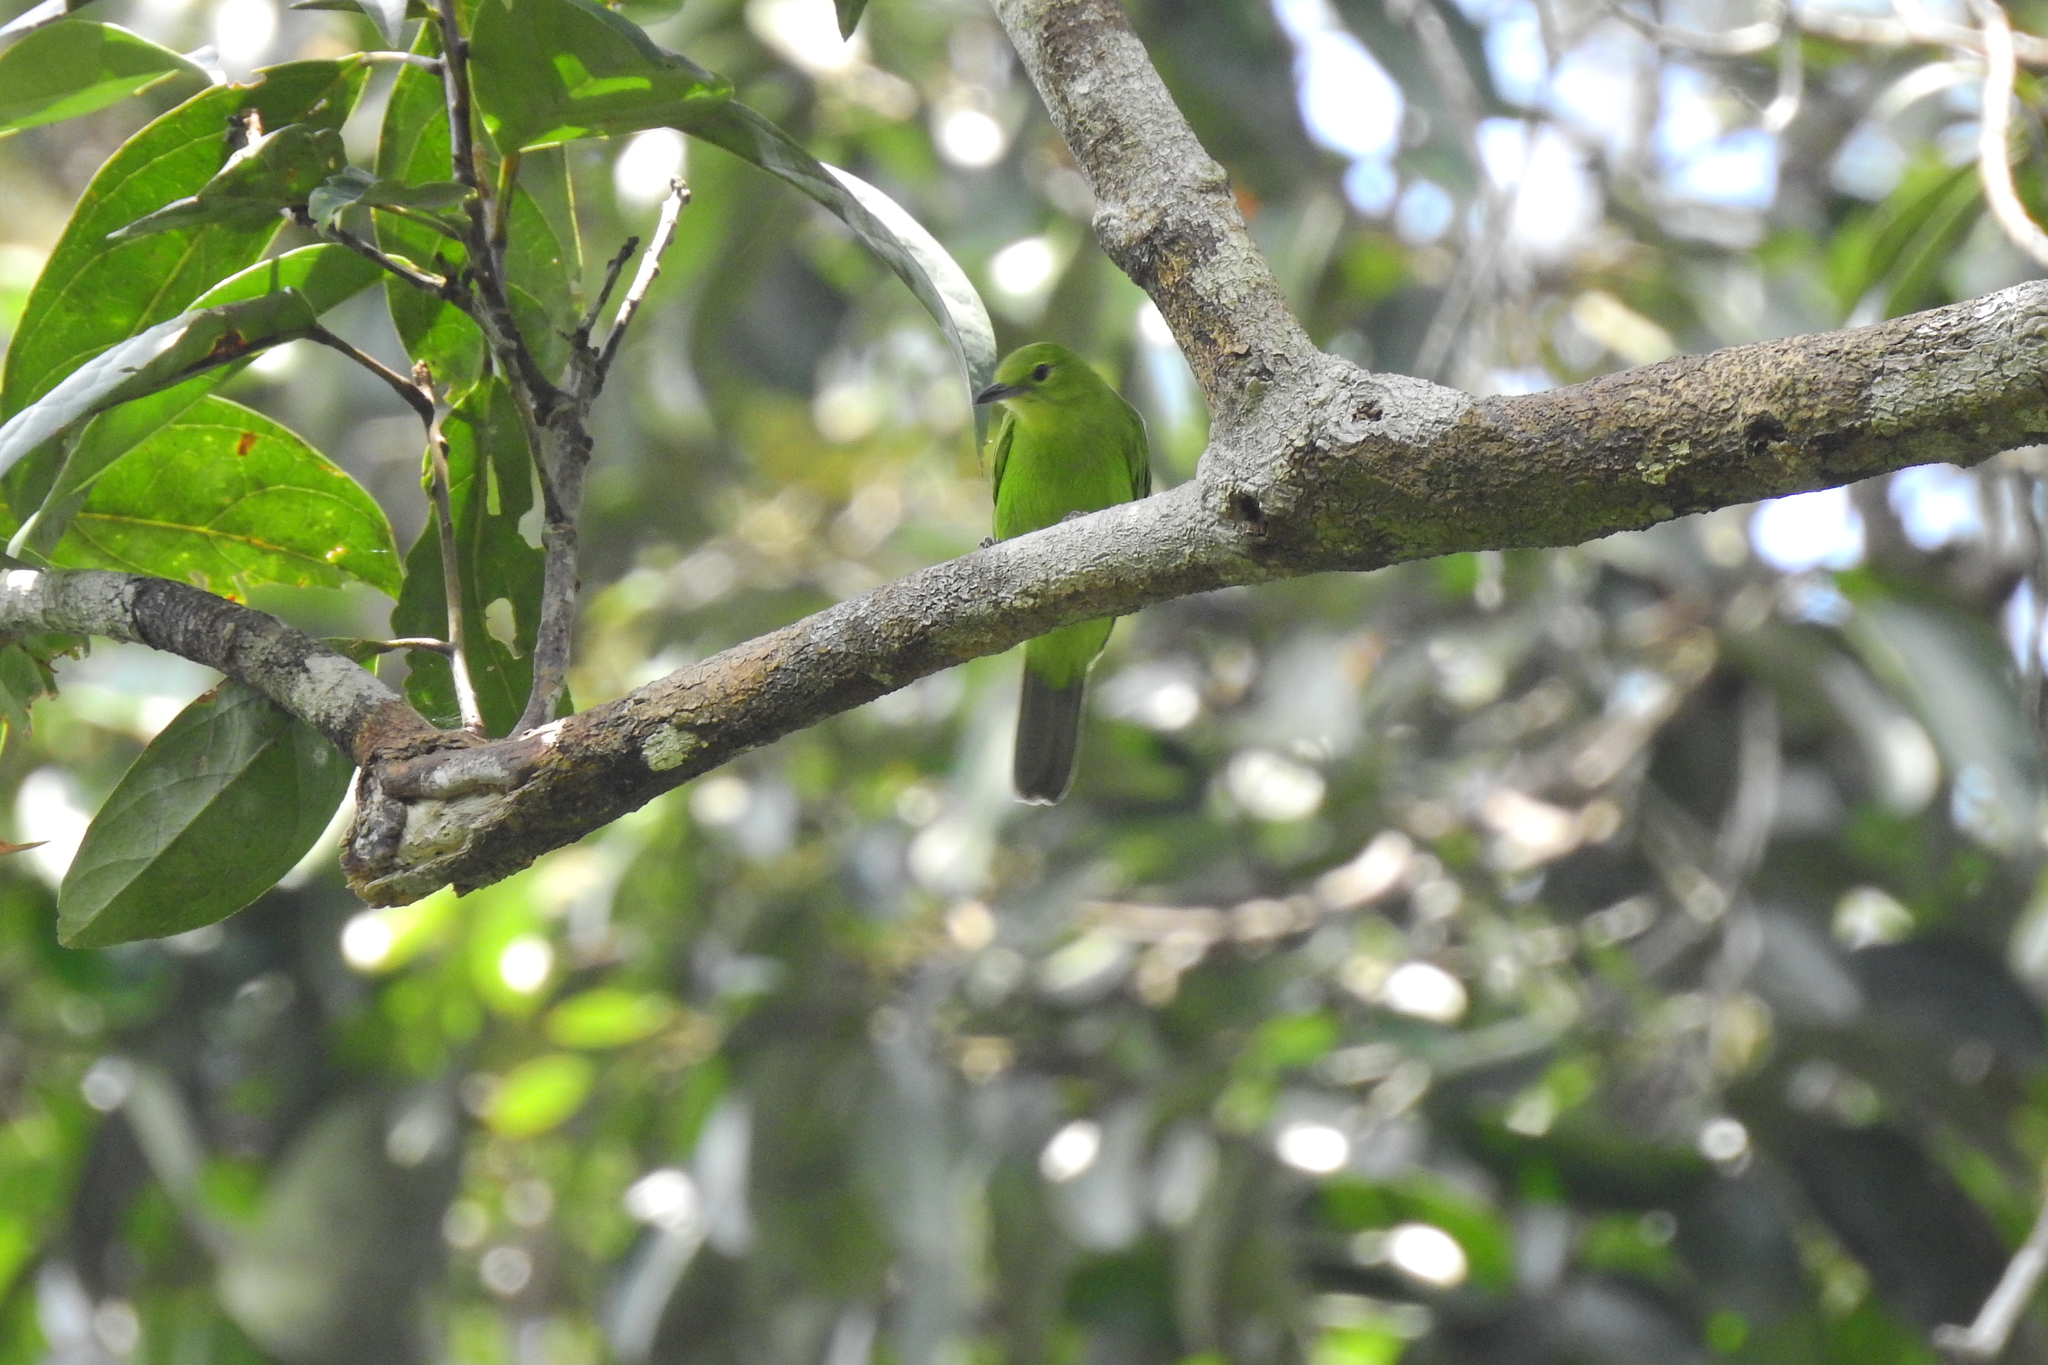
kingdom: Animalia
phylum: Chordata
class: Aves
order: Passeriformes
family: Chloropseidae
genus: Chloropsis
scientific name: Chloropsis sonnerati
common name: Greater green leafbird
